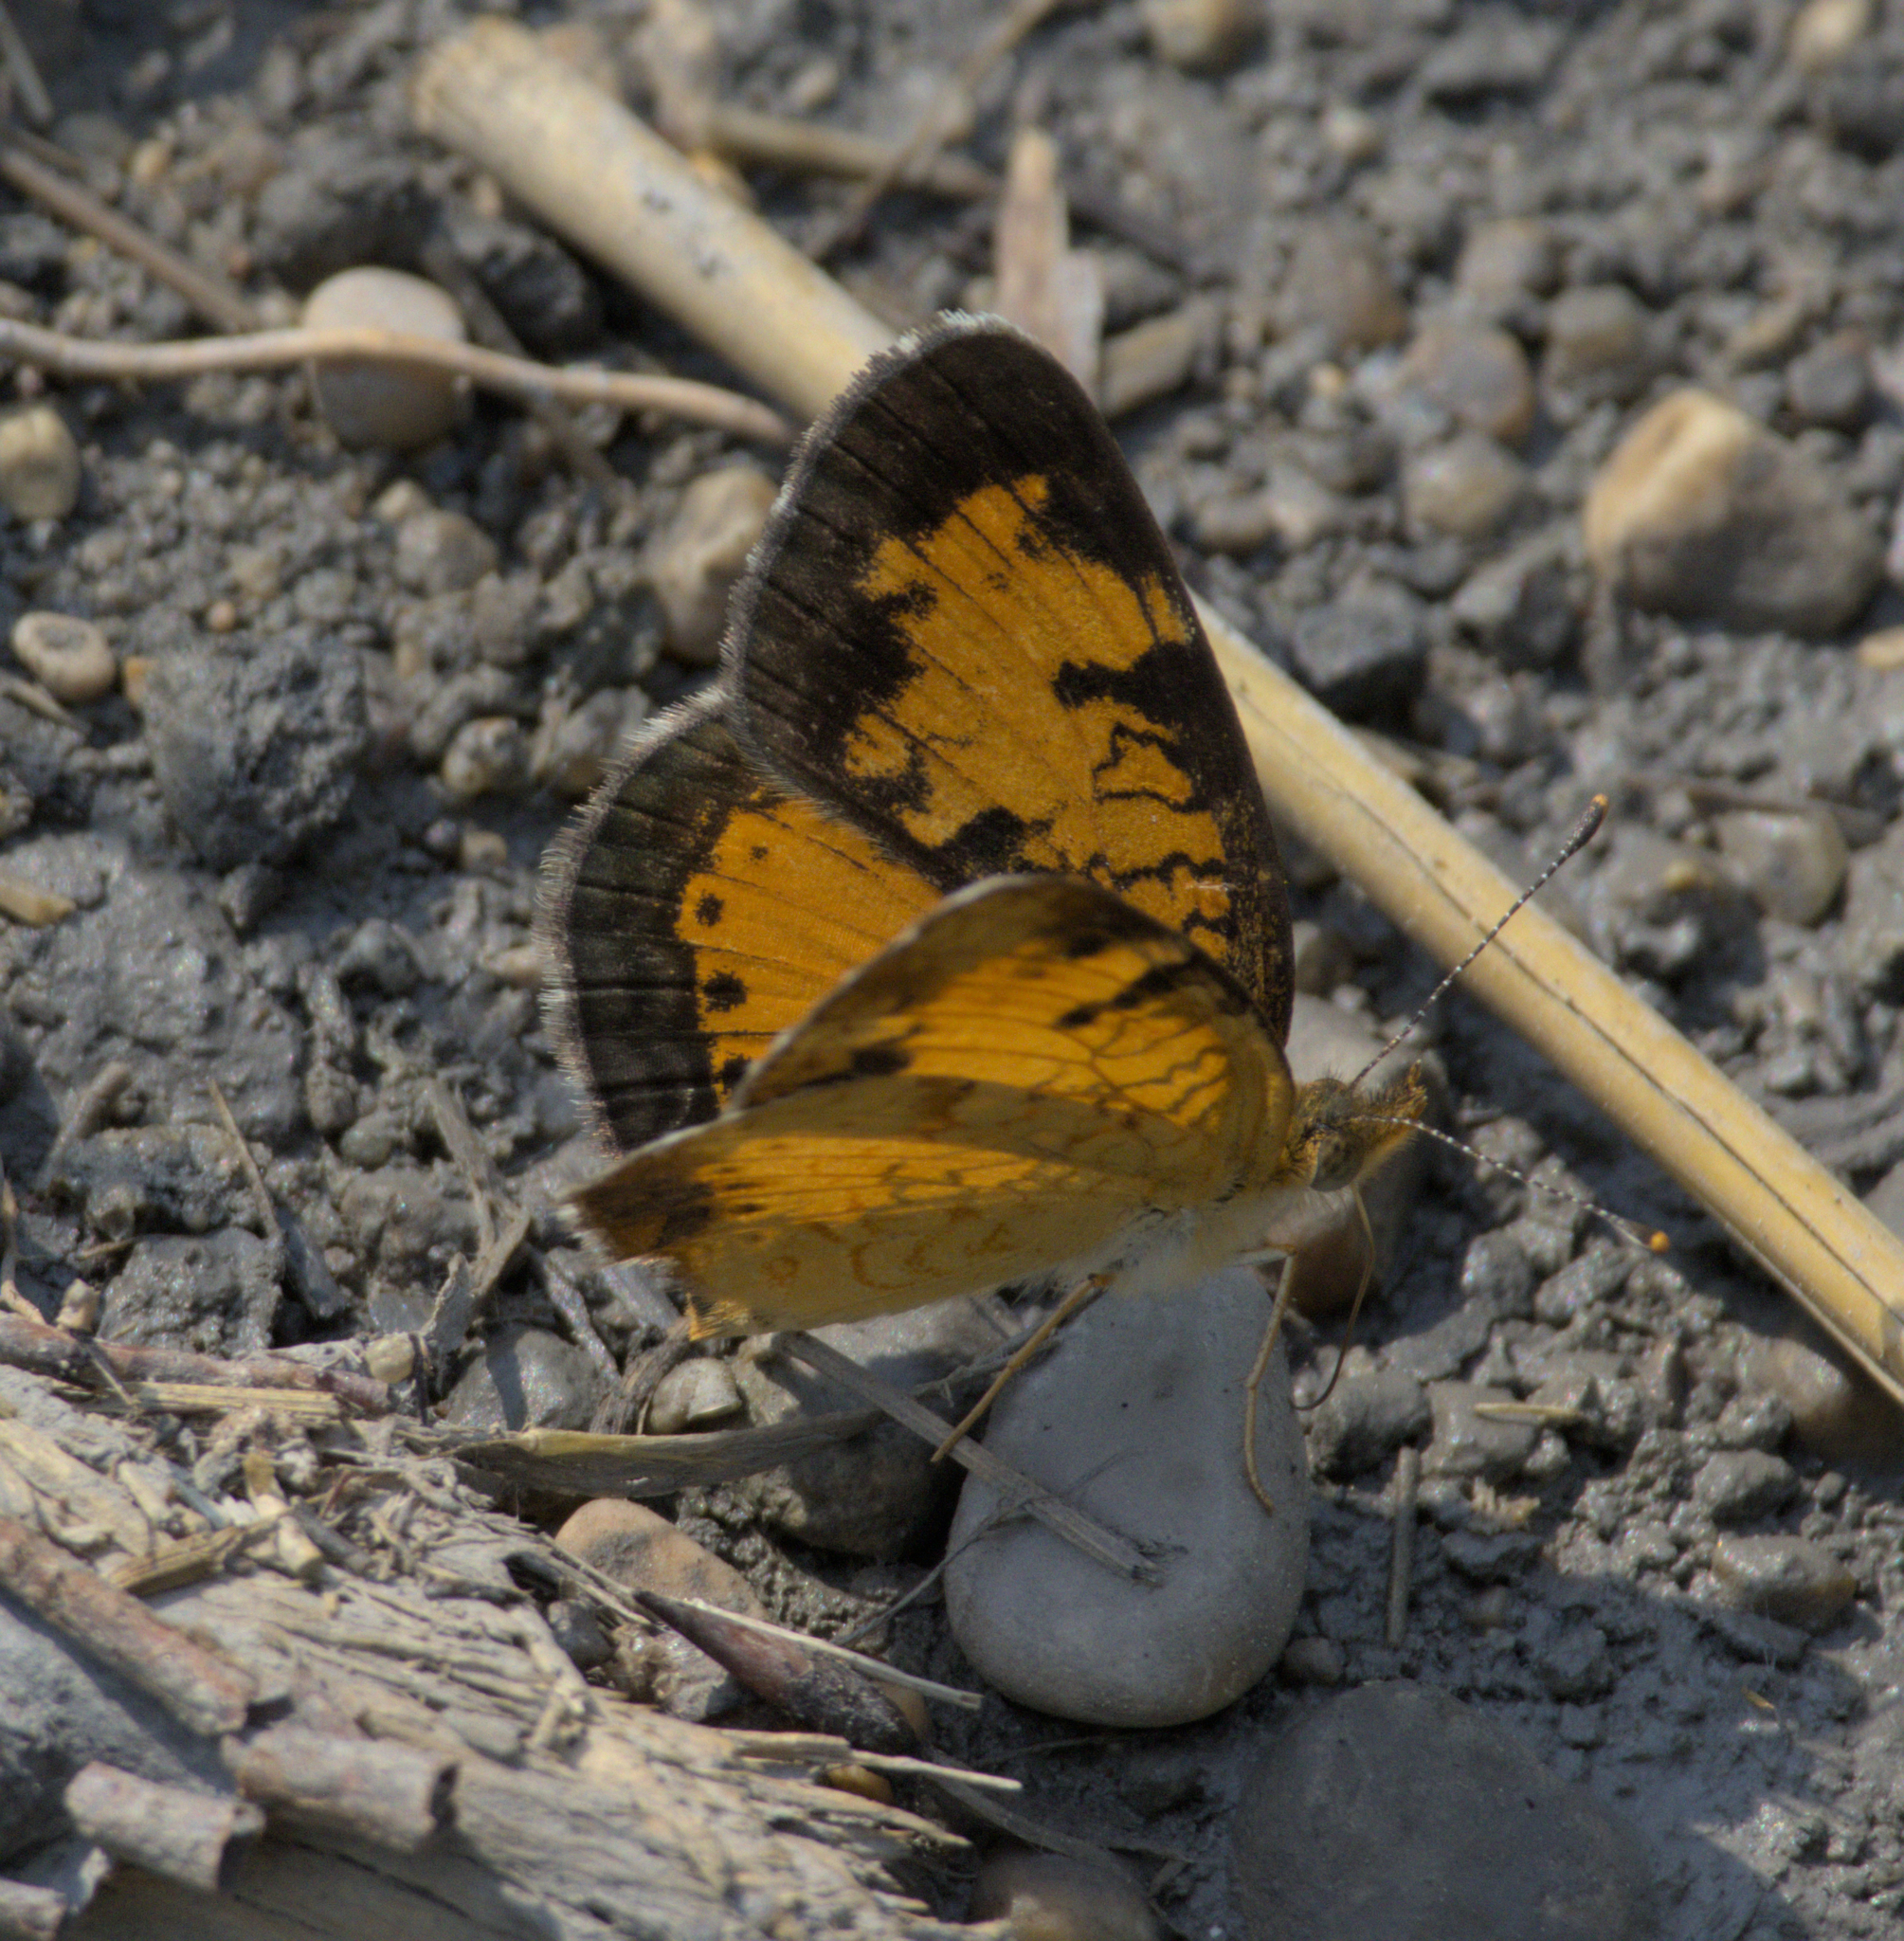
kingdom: Animalia
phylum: Arthropoda
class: Insecta
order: Lepidoptera
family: Nymphalidae
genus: Phyciodes
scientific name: Phyciodes tharos
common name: Pearl crescent
